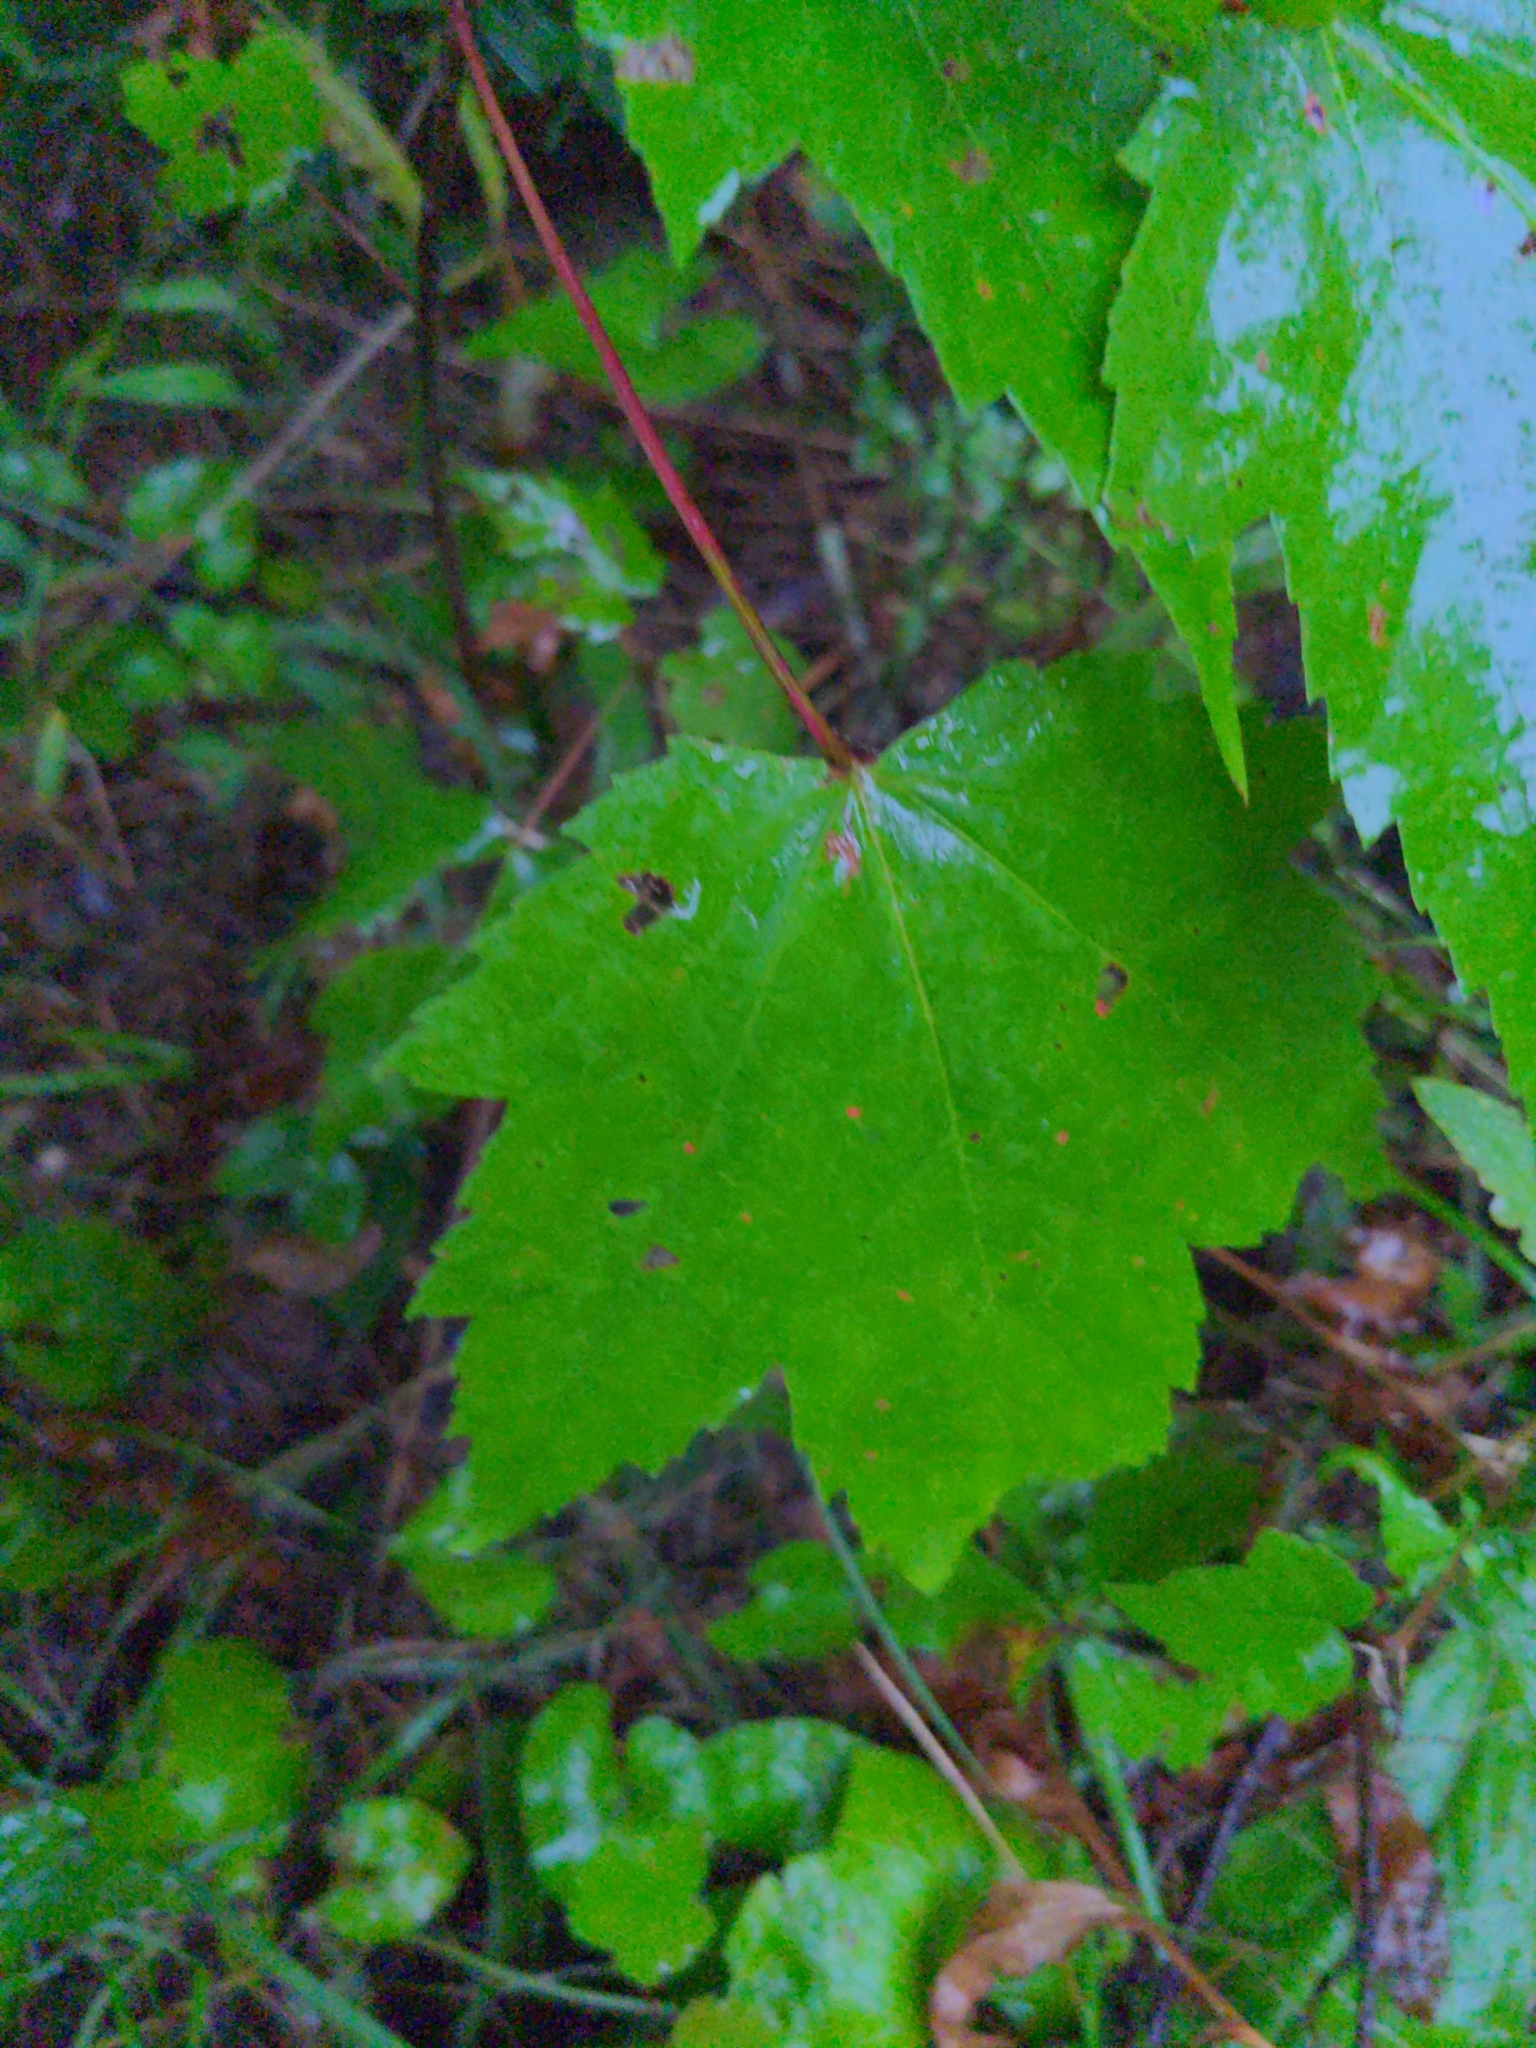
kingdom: Plantae
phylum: Tracheophyta
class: Magnoliopsida
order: Sapindales
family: Sapindaceae
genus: Acer
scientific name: Acer rubrum
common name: Red maple
